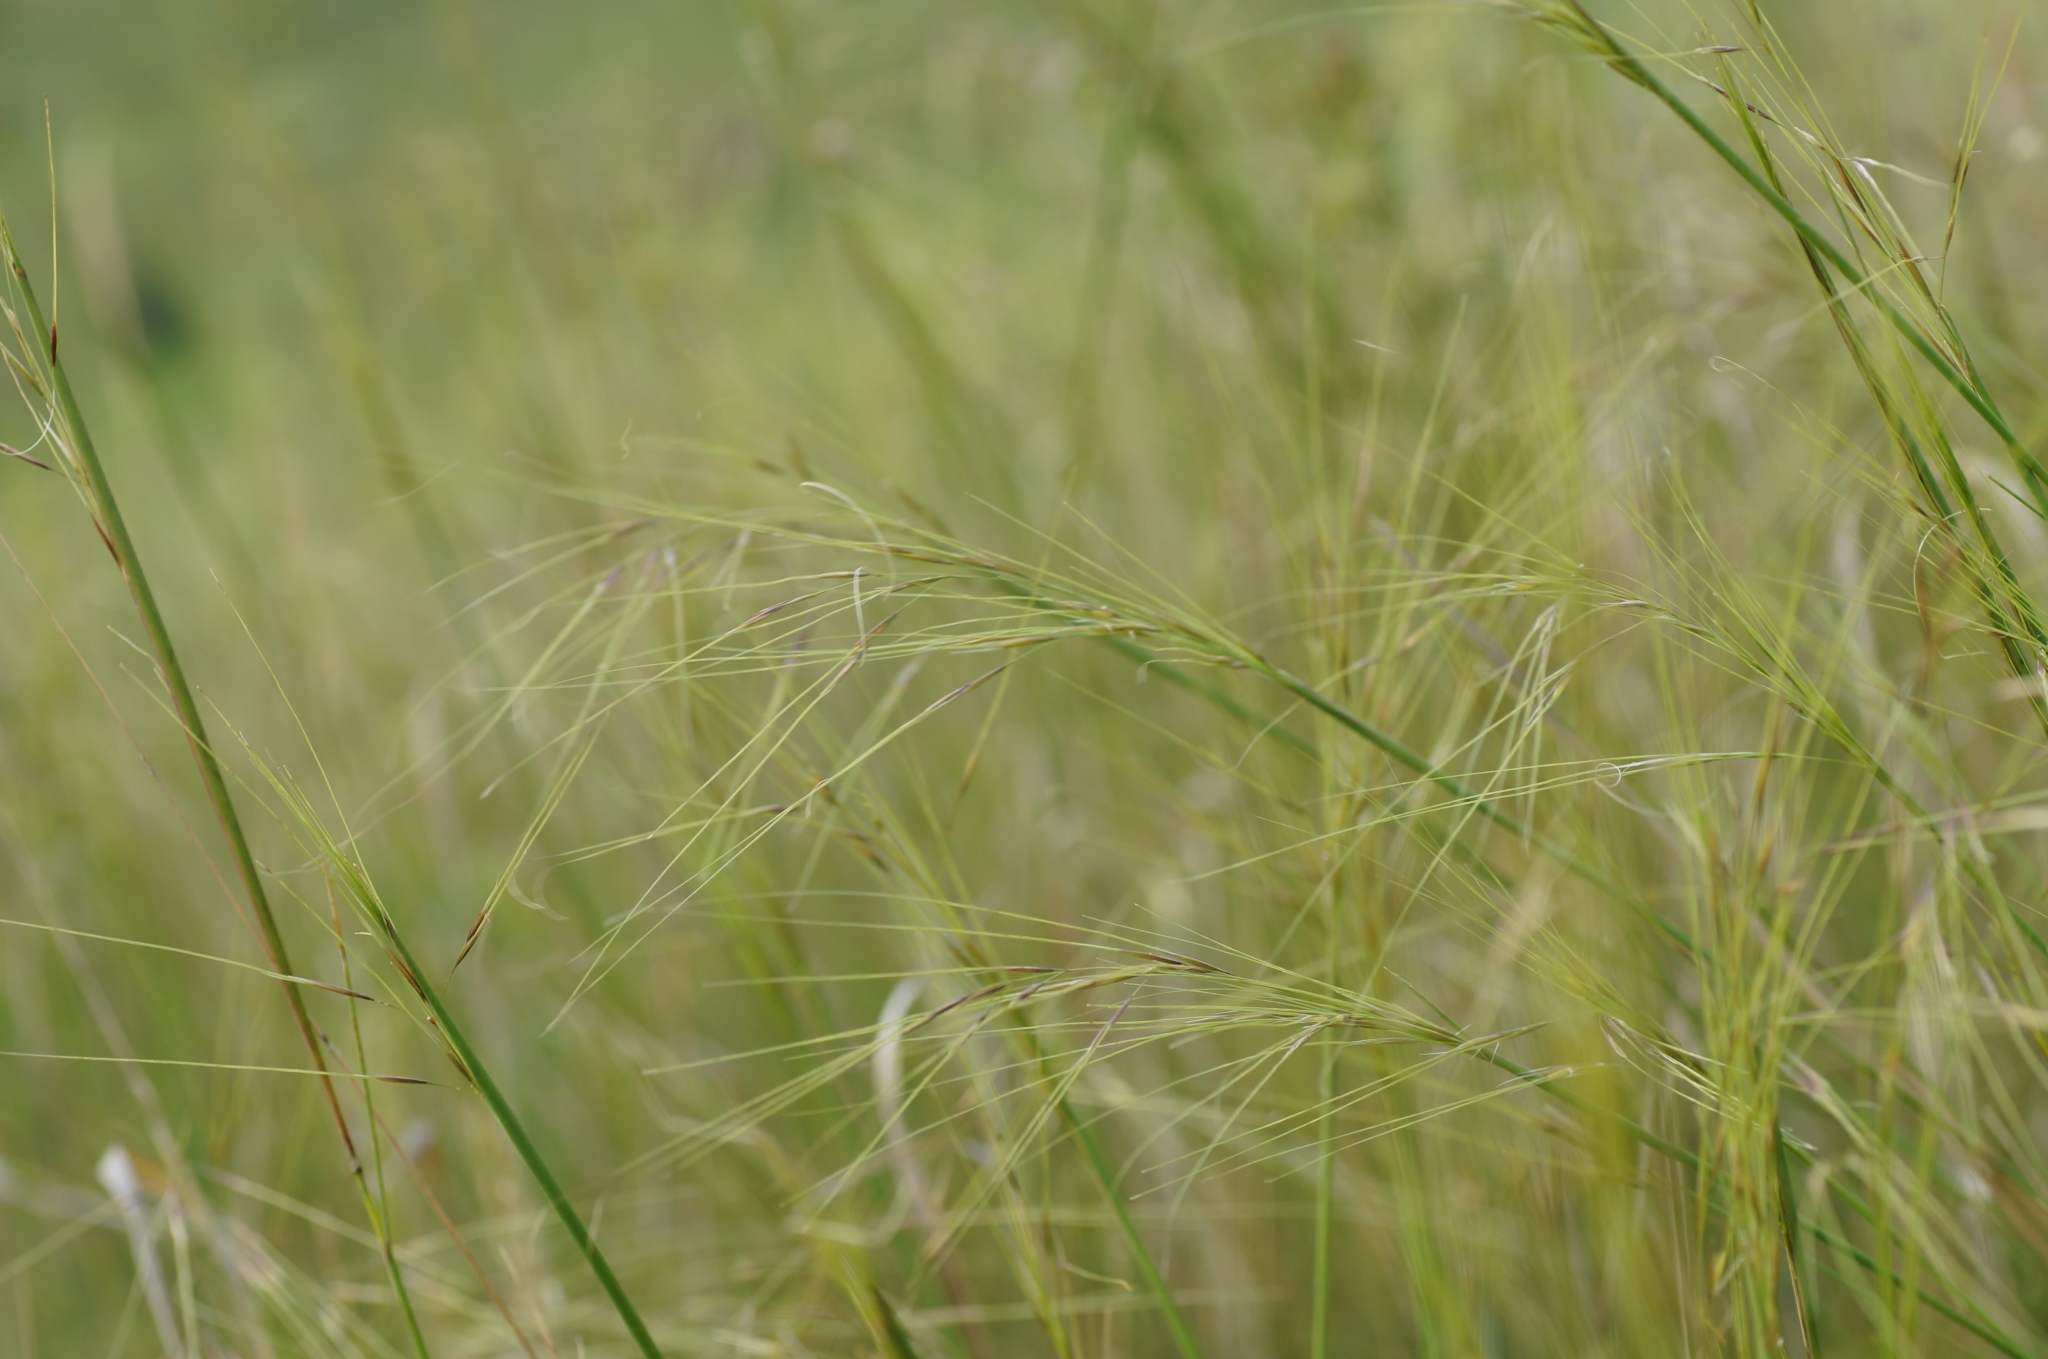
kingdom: Plantae
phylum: Tracheophyta
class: Liliopsida
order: Poales
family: Poaceae
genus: Stipa
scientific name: Stipa capillata
